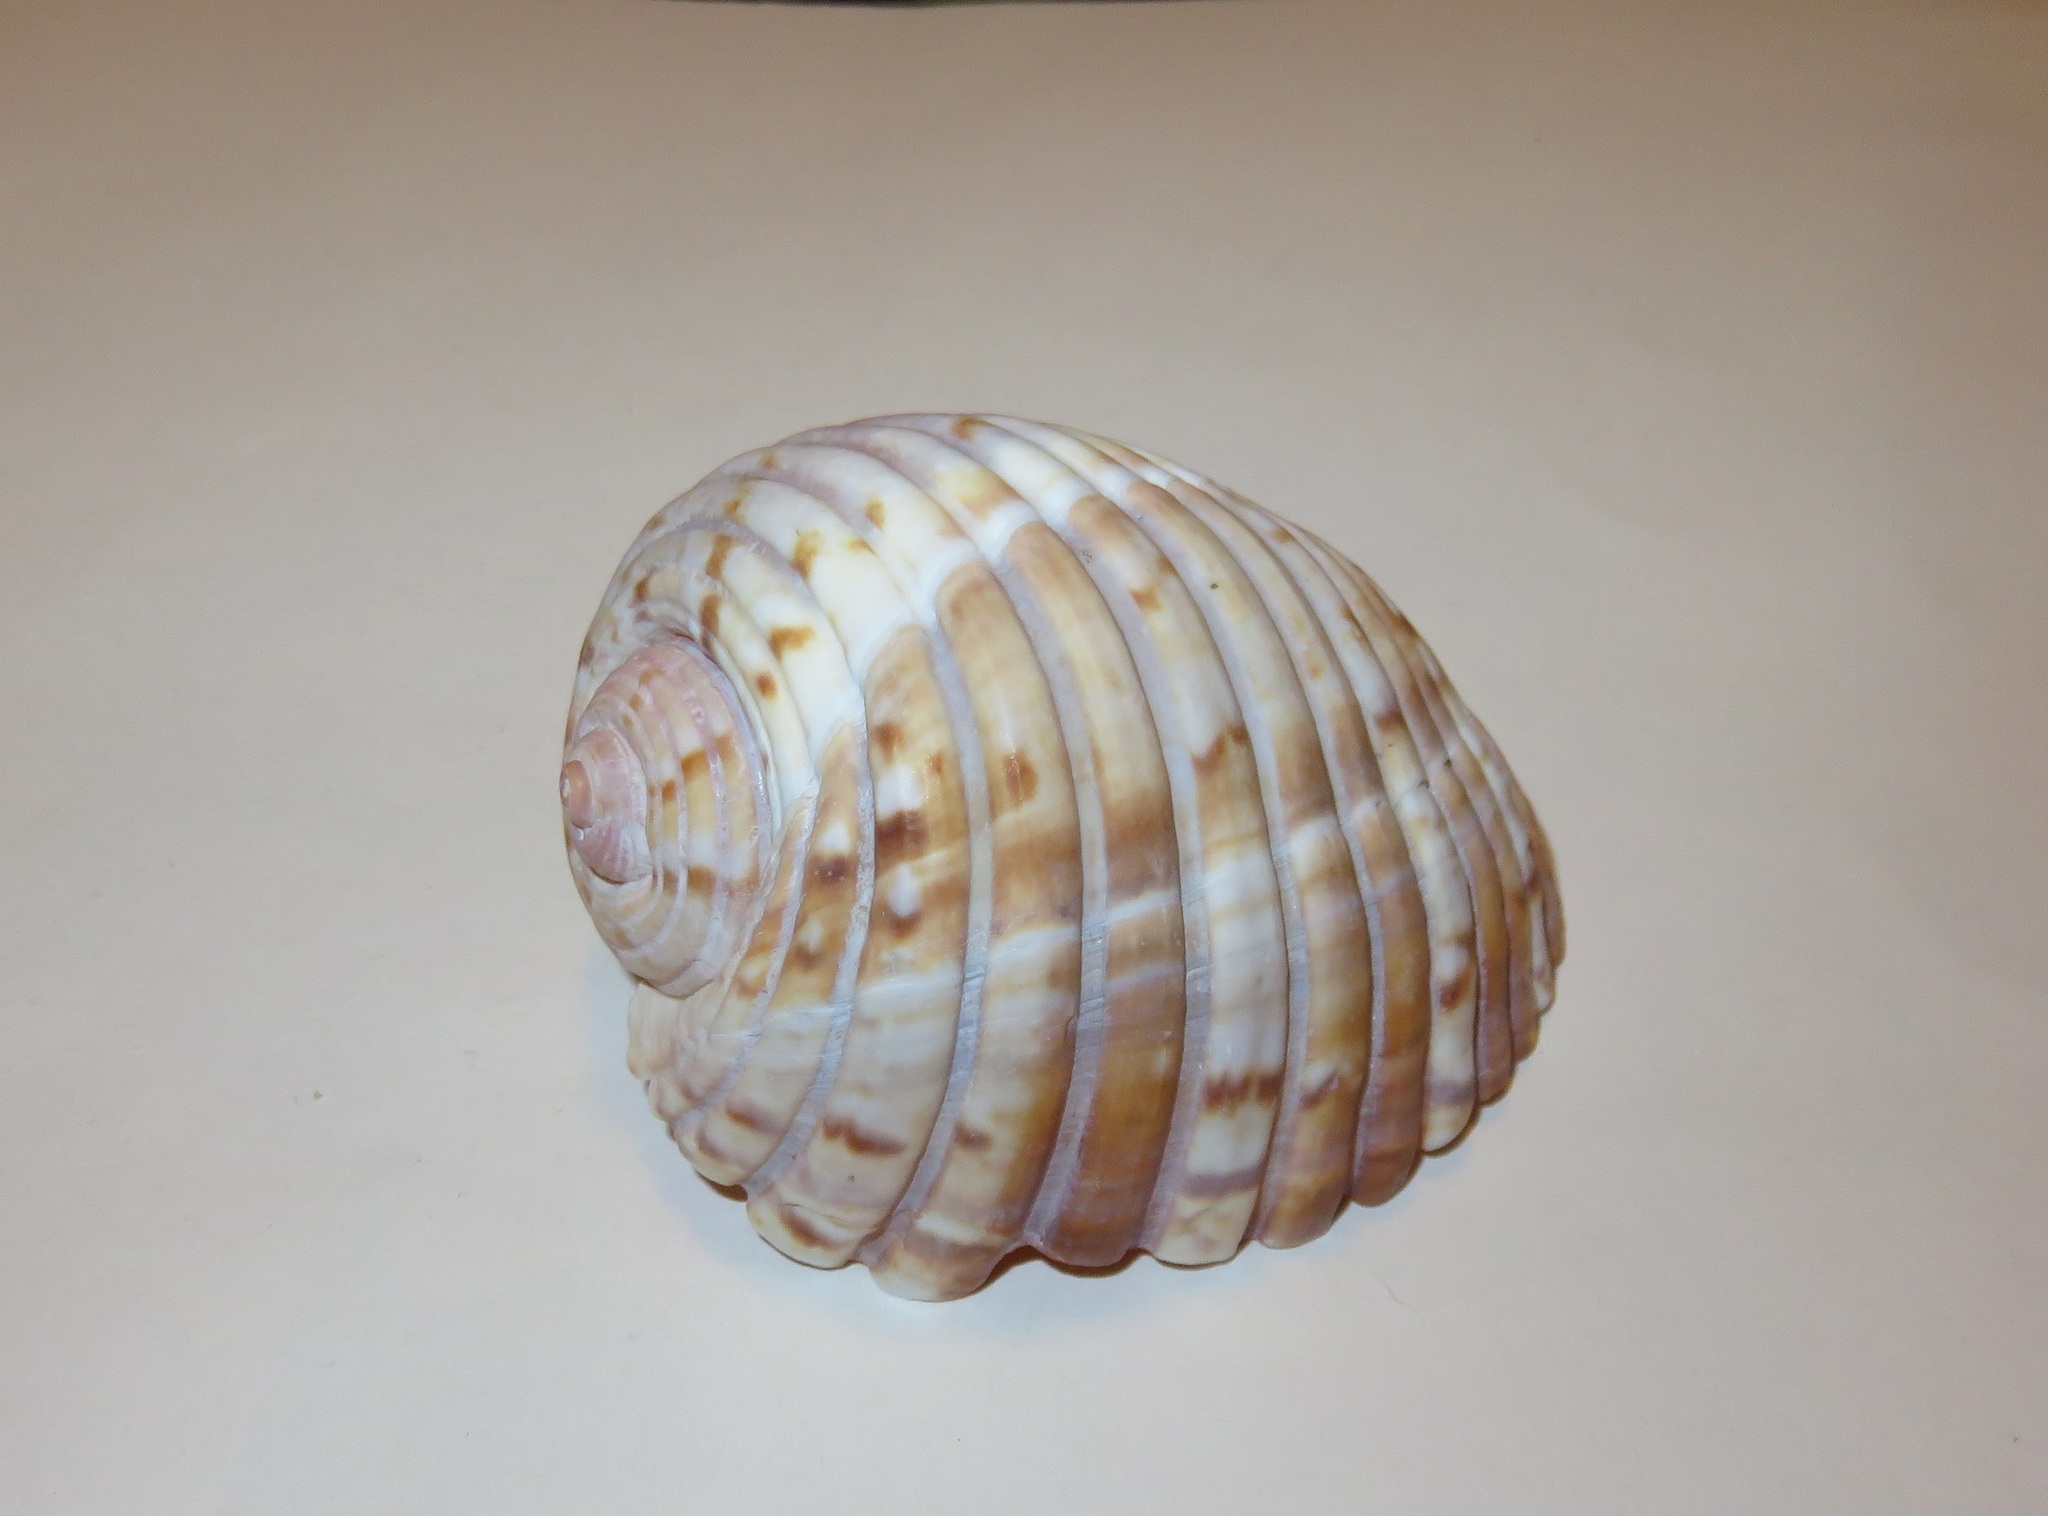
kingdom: Animalia
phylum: Mollusca
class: Gastropoda
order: Littorinimorpha
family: Tonnidae
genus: Tonna
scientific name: Tonna luteostoma
